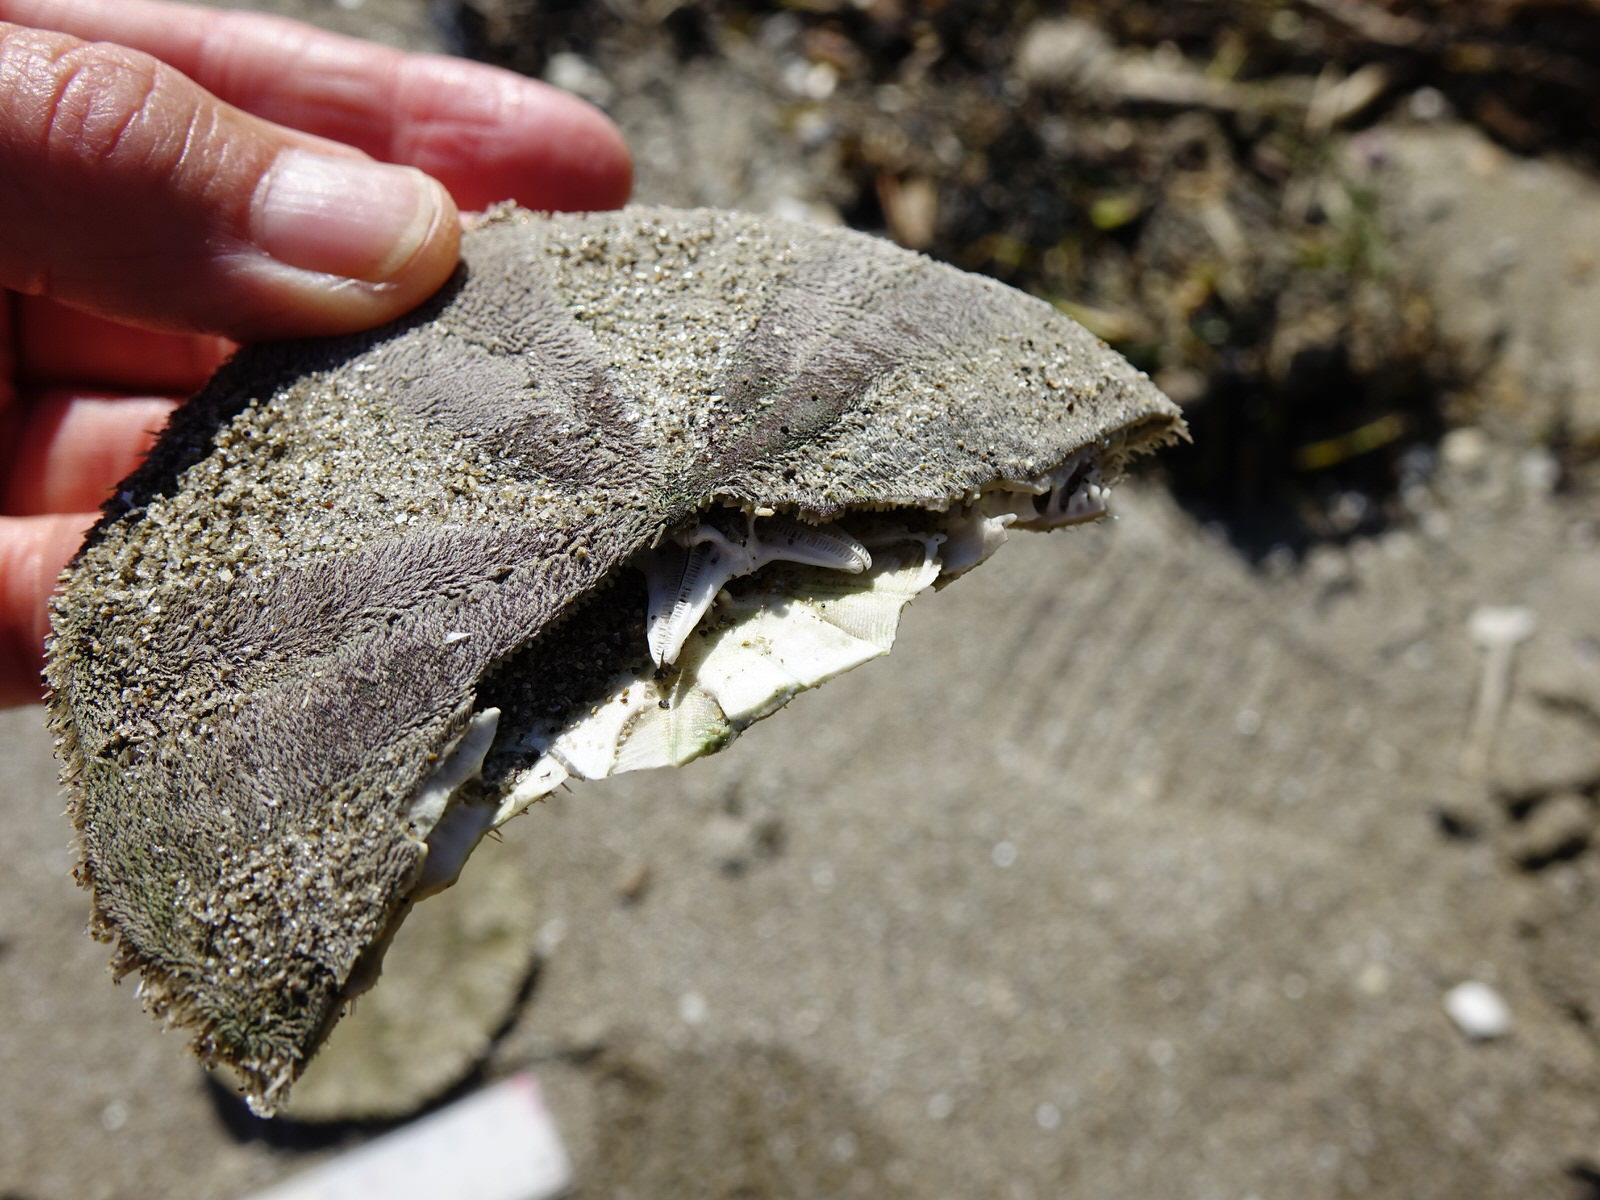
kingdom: Animalia
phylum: Echinodermata
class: Echinoidea
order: Clypeasteroida
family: Clypeasteridae
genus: Fellaster
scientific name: Fellaster zelandiae
